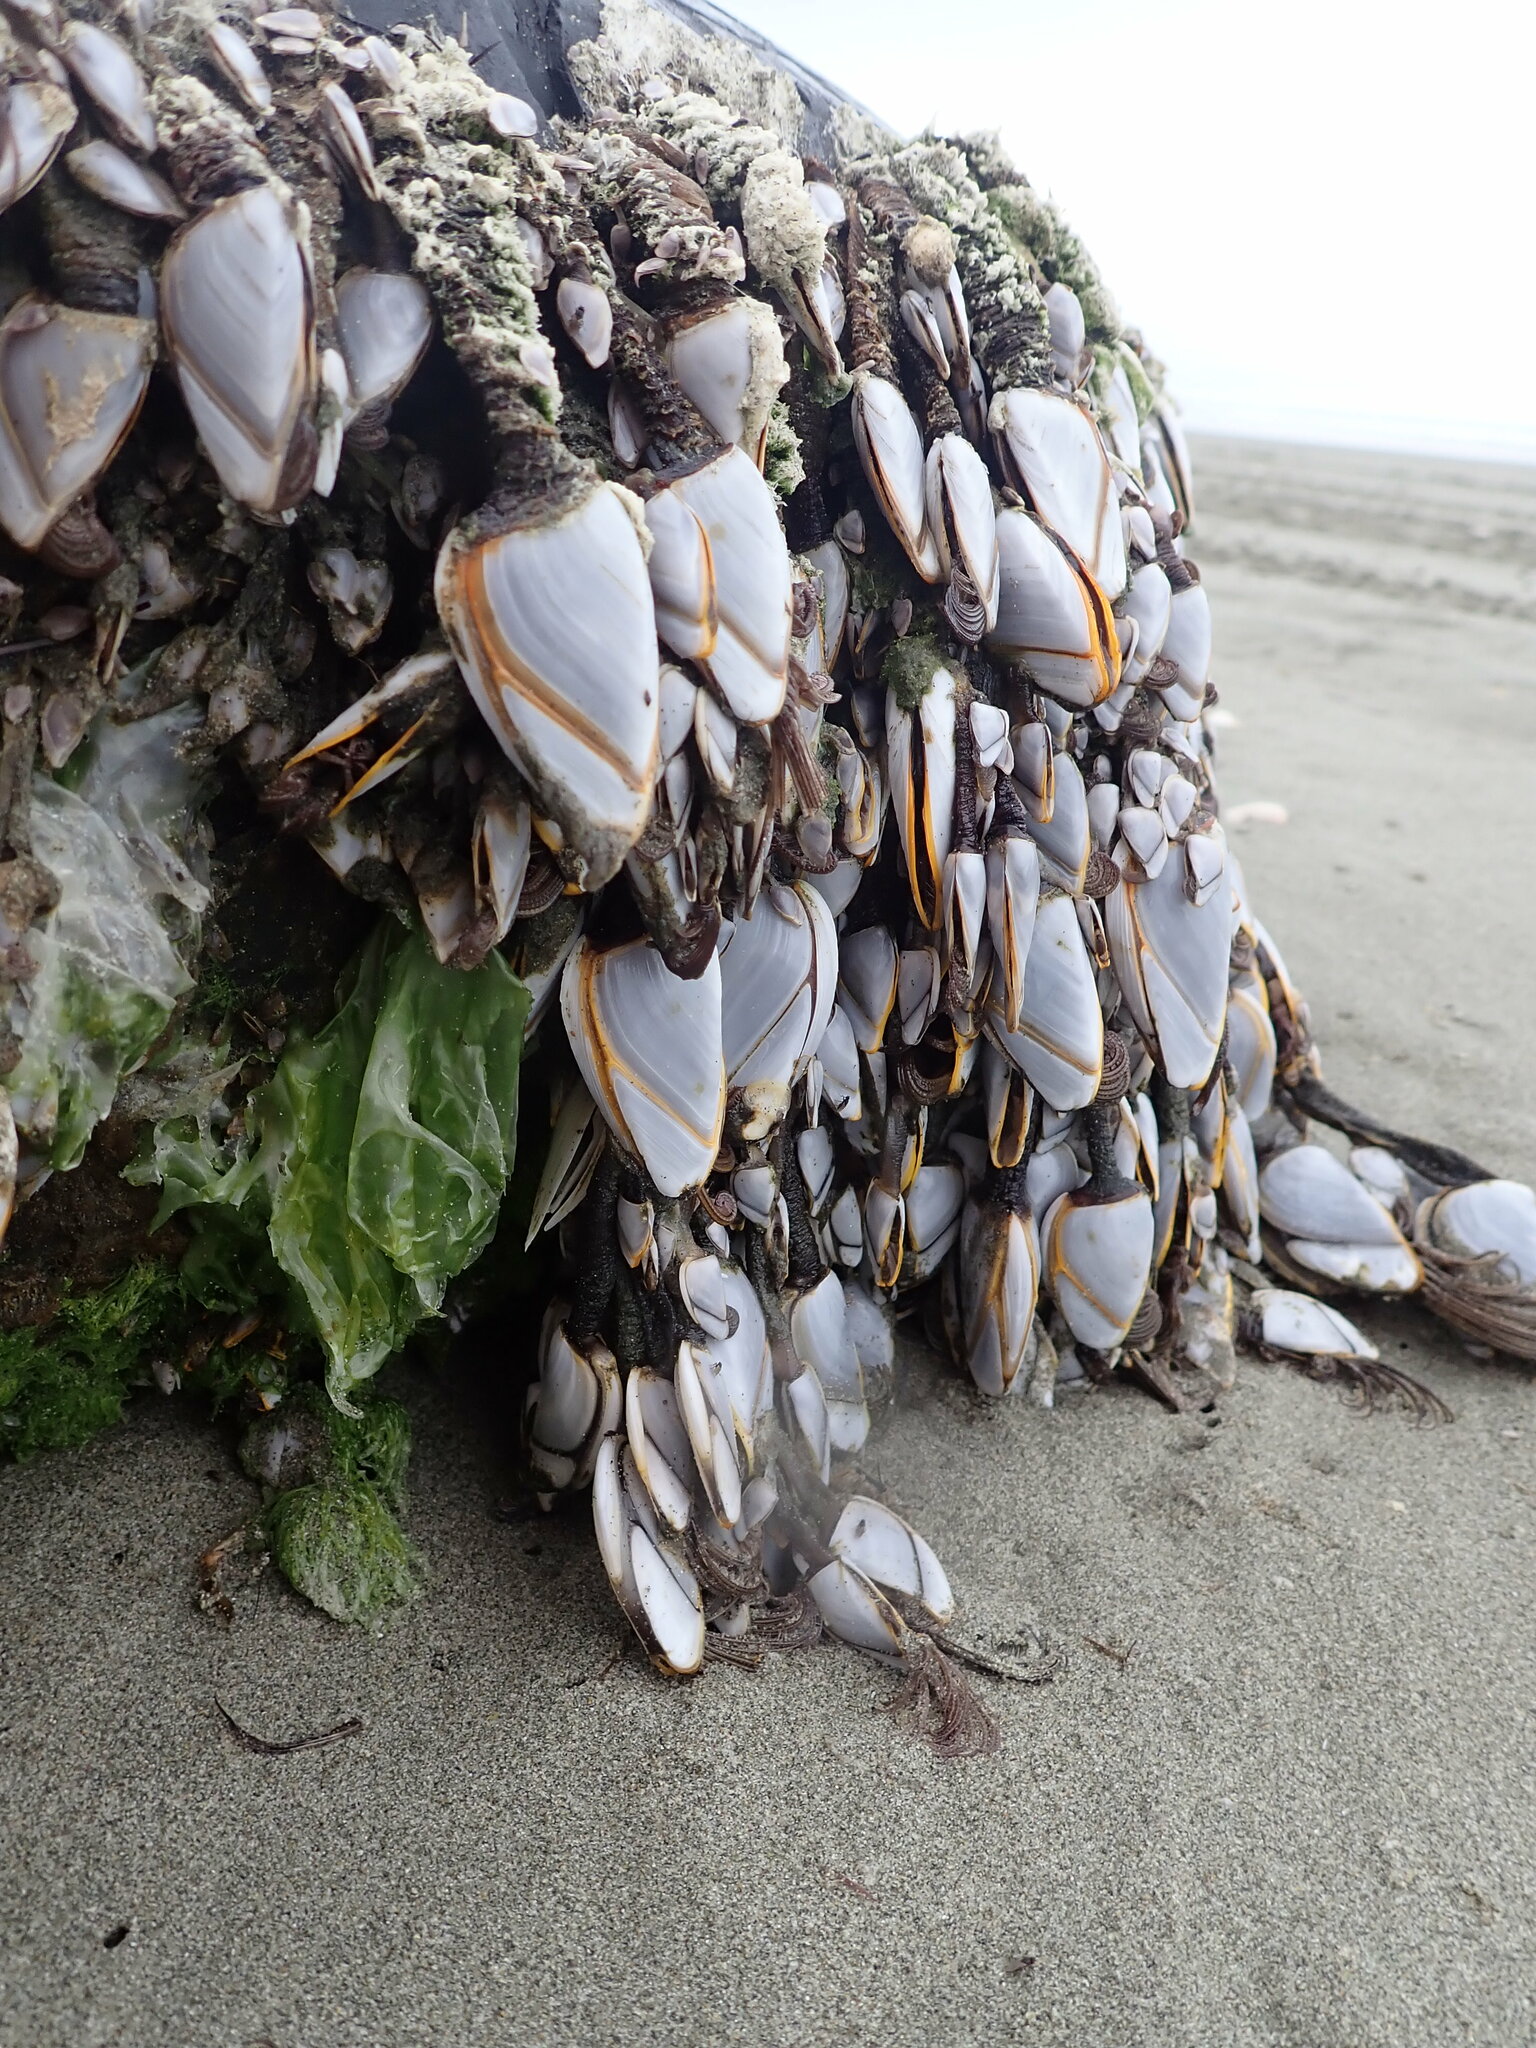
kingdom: Animalia
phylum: Arthropoda
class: Maxillopoda
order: Pedunculata
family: Lepadidae
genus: Lepas
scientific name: Lepas anatifera
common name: Common goose barnacle
